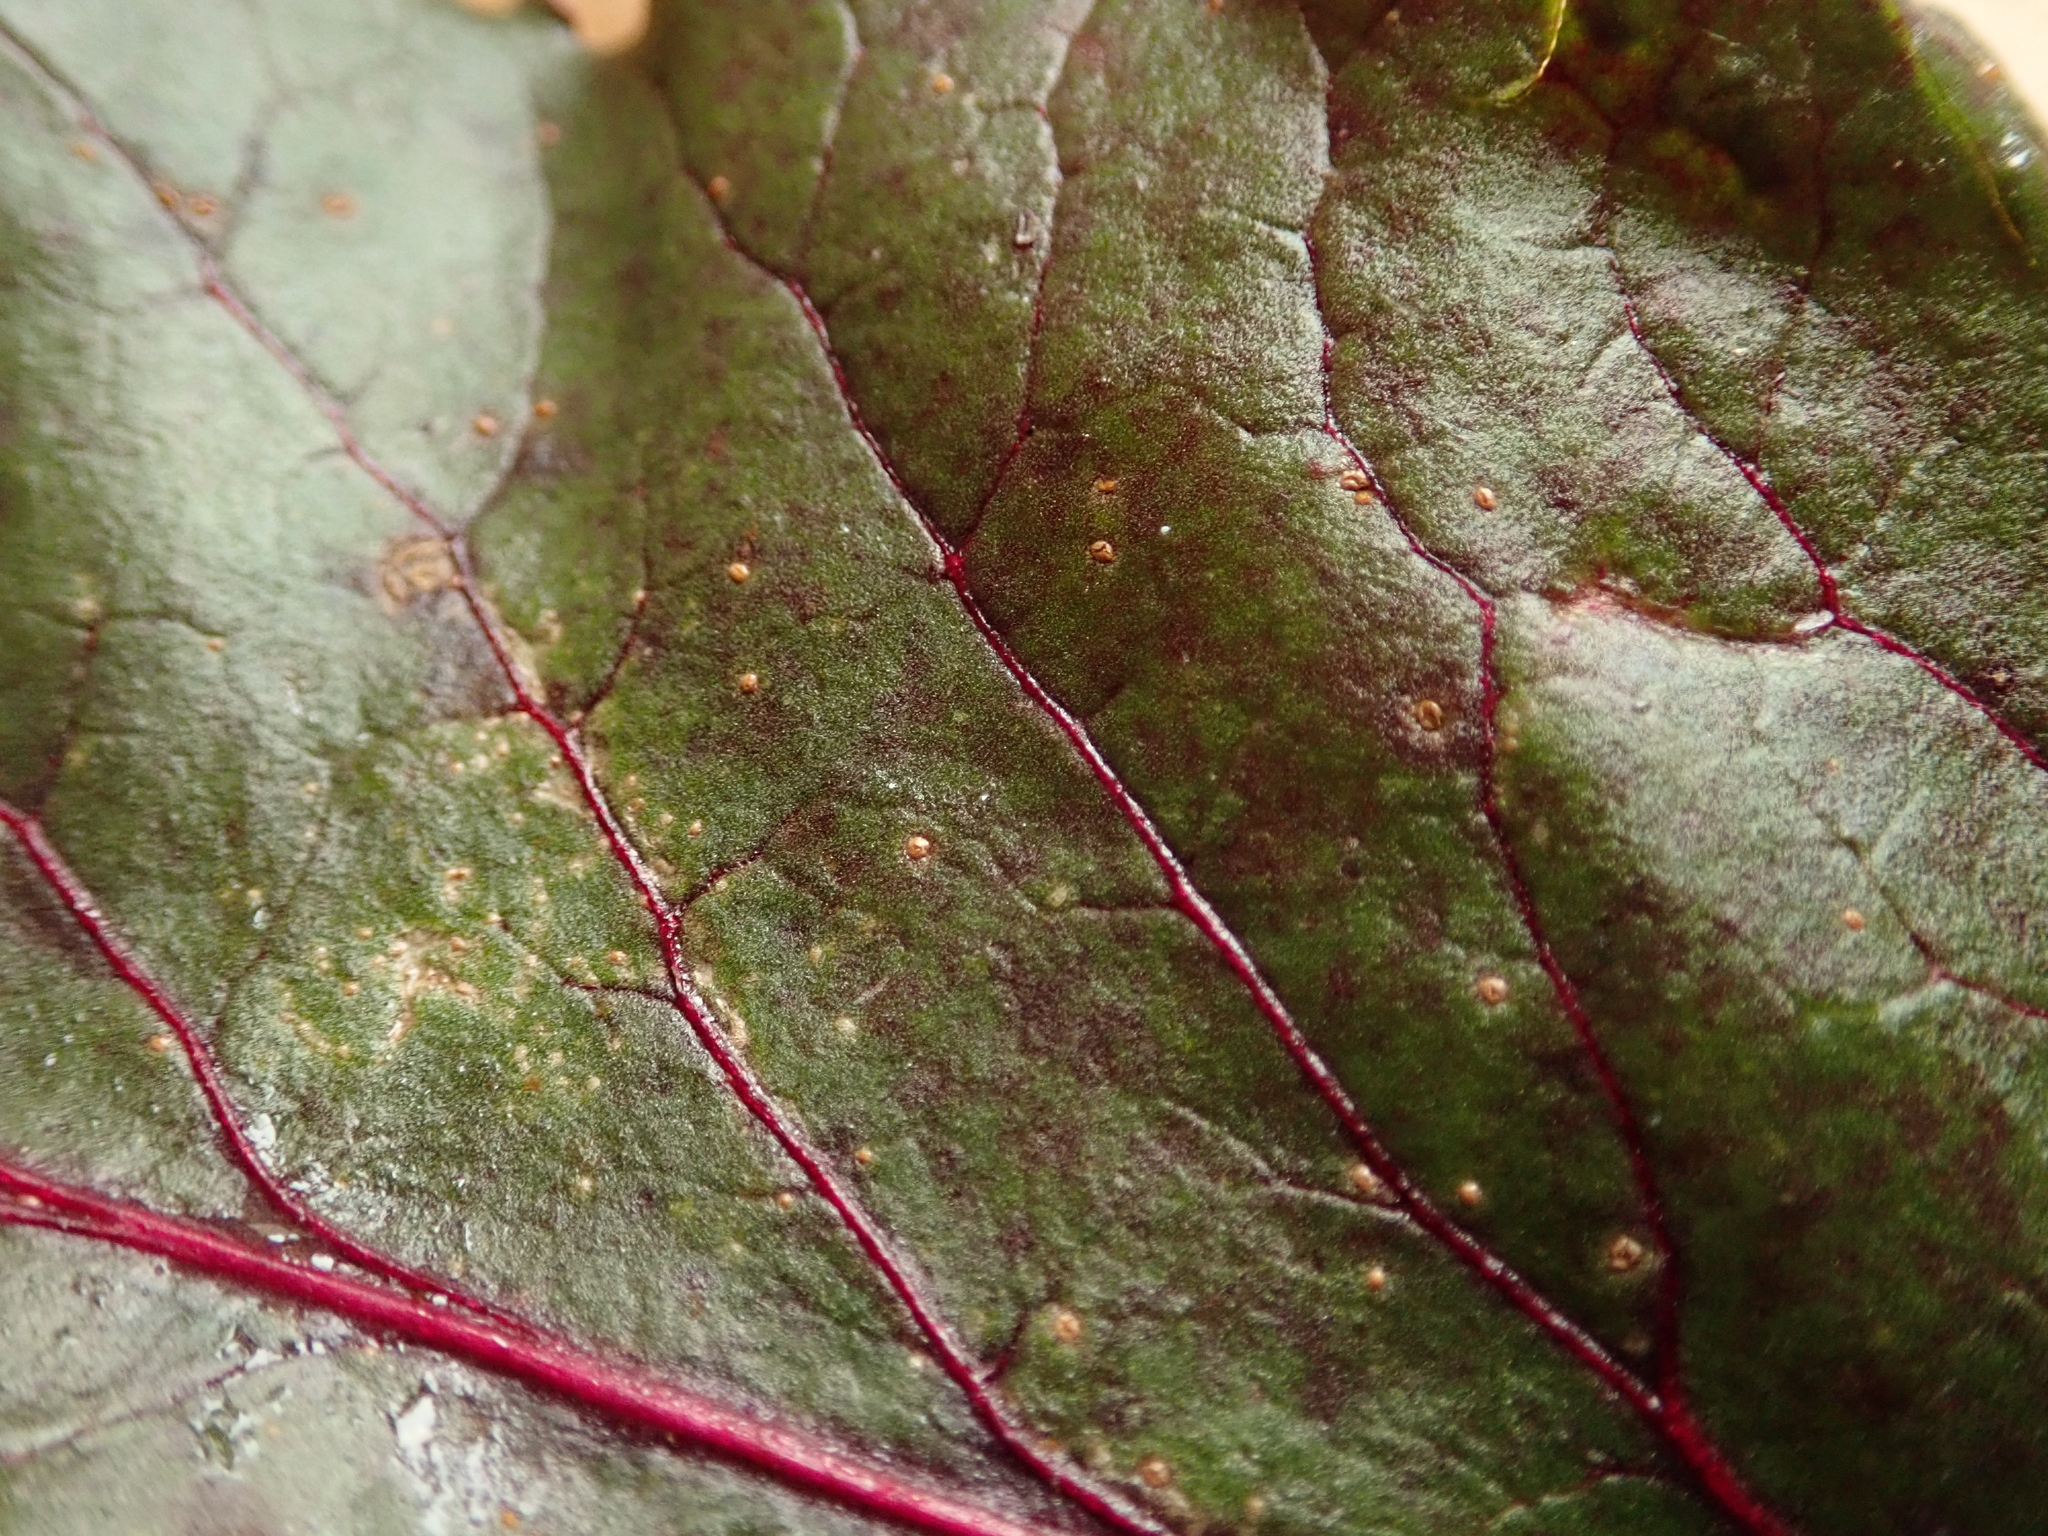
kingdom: Fungi
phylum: Basidiomycota
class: Pucciniomycetes
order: Pucciniales
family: Pucciniaceae
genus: Uromyces
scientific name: Uromyces betae
